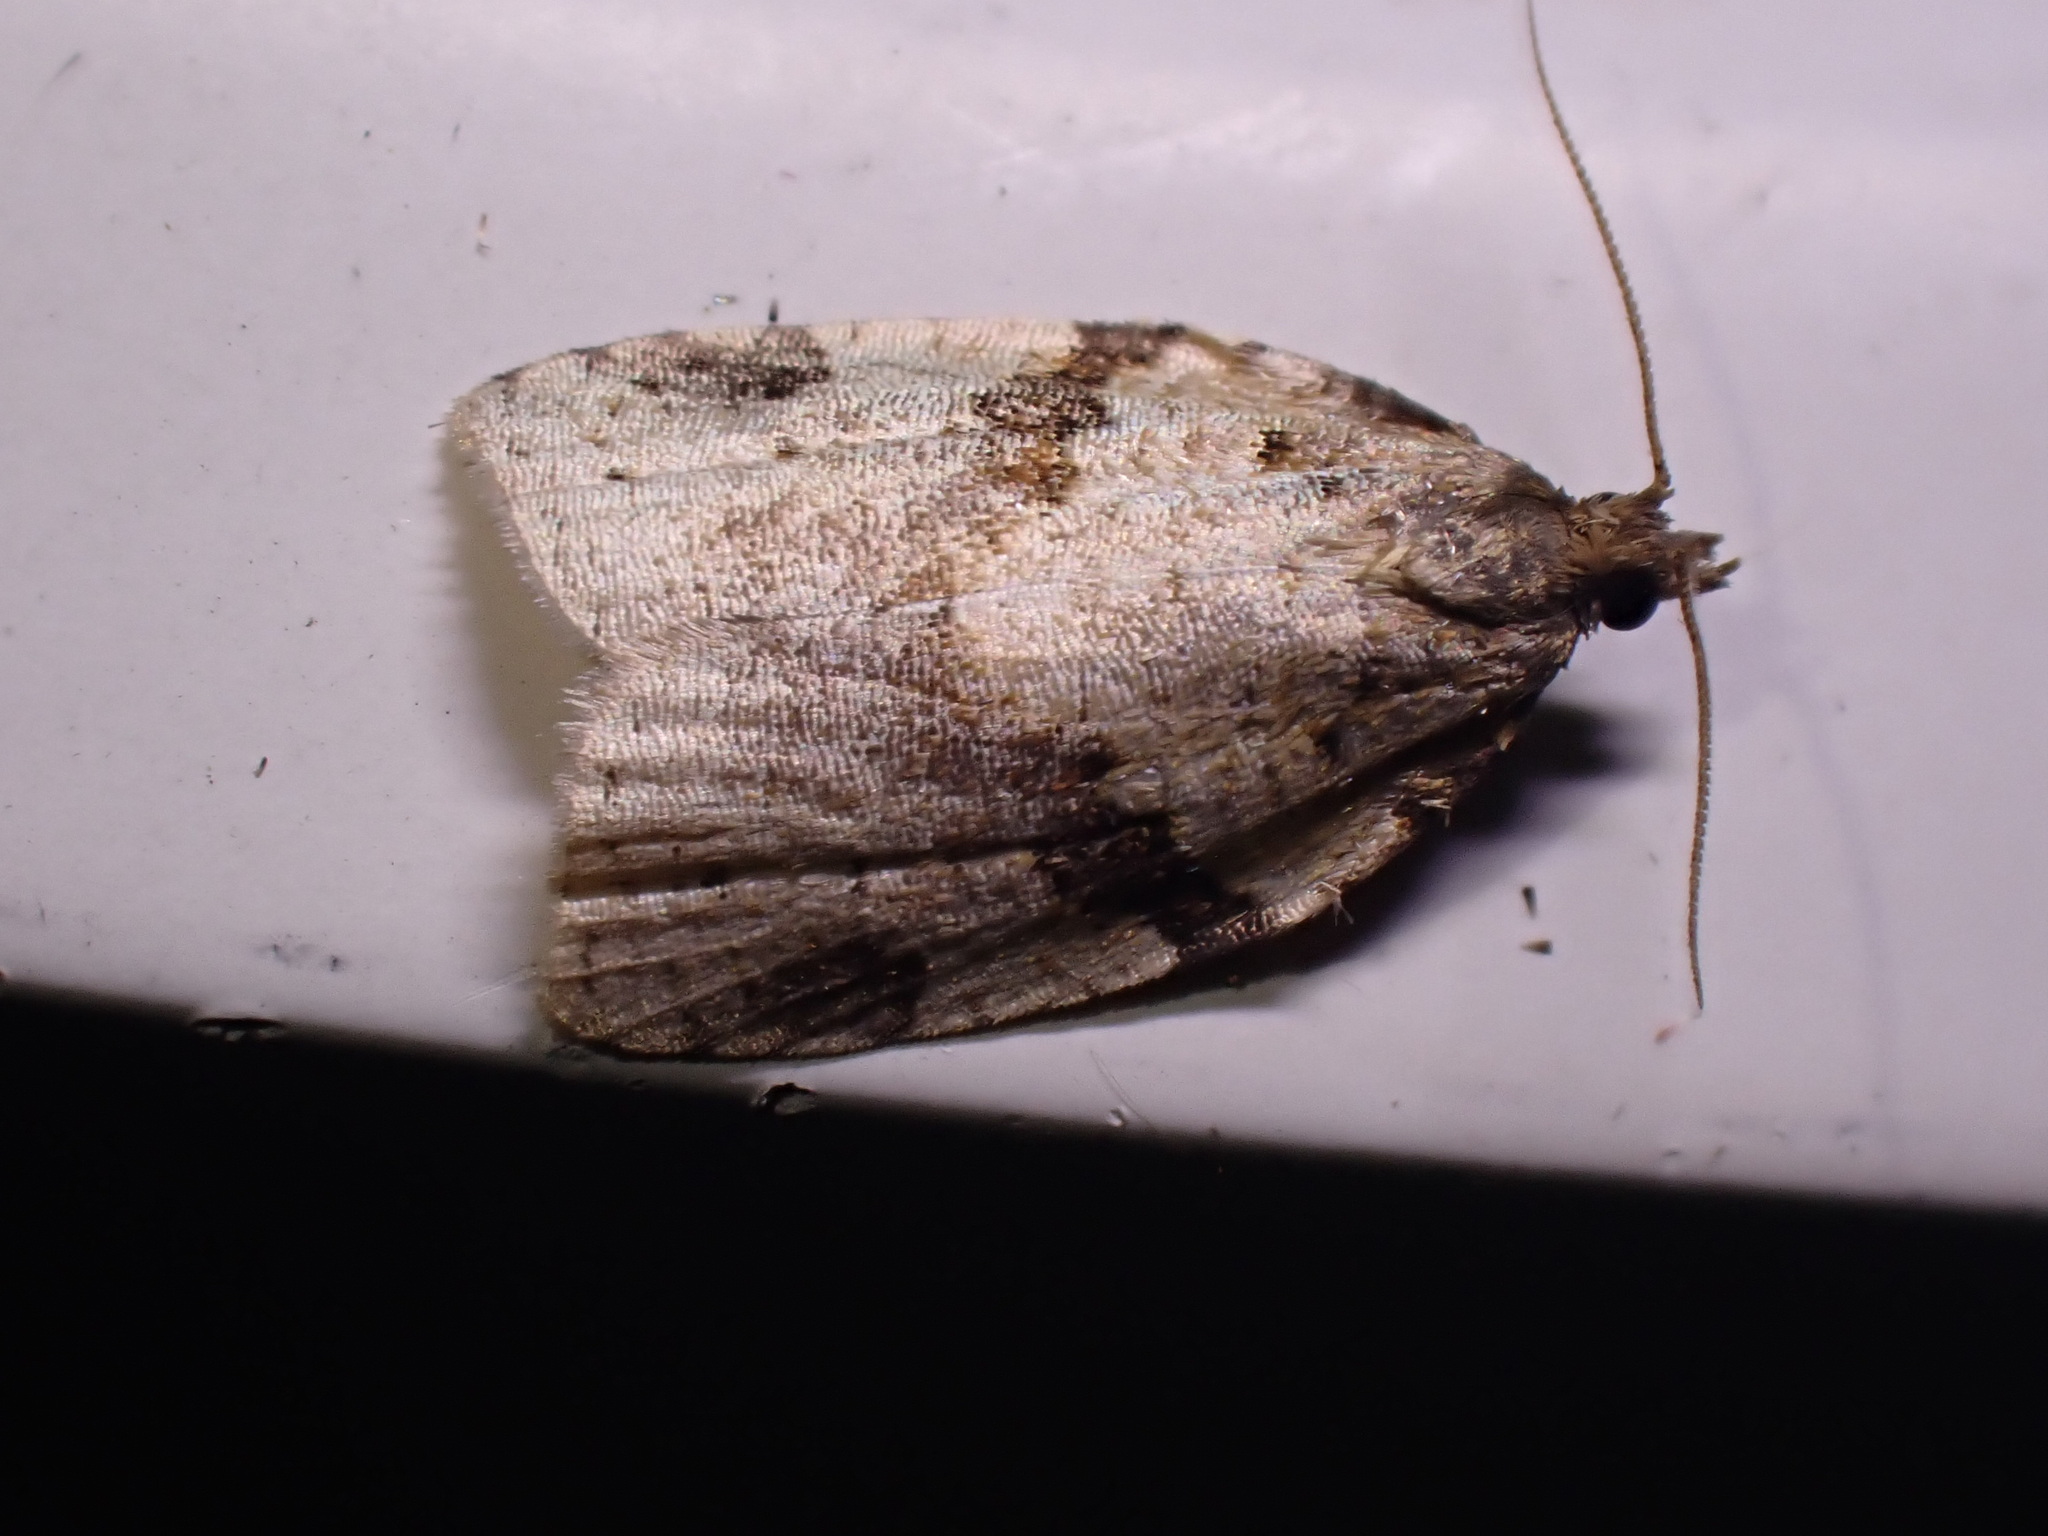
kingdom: Animalia
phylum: Arthropoda
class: Insecta
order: Lepidoptera
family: Tortricidae
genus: Clepsis
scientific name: Clepsis spectrana
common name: Cyclamen tortrix
